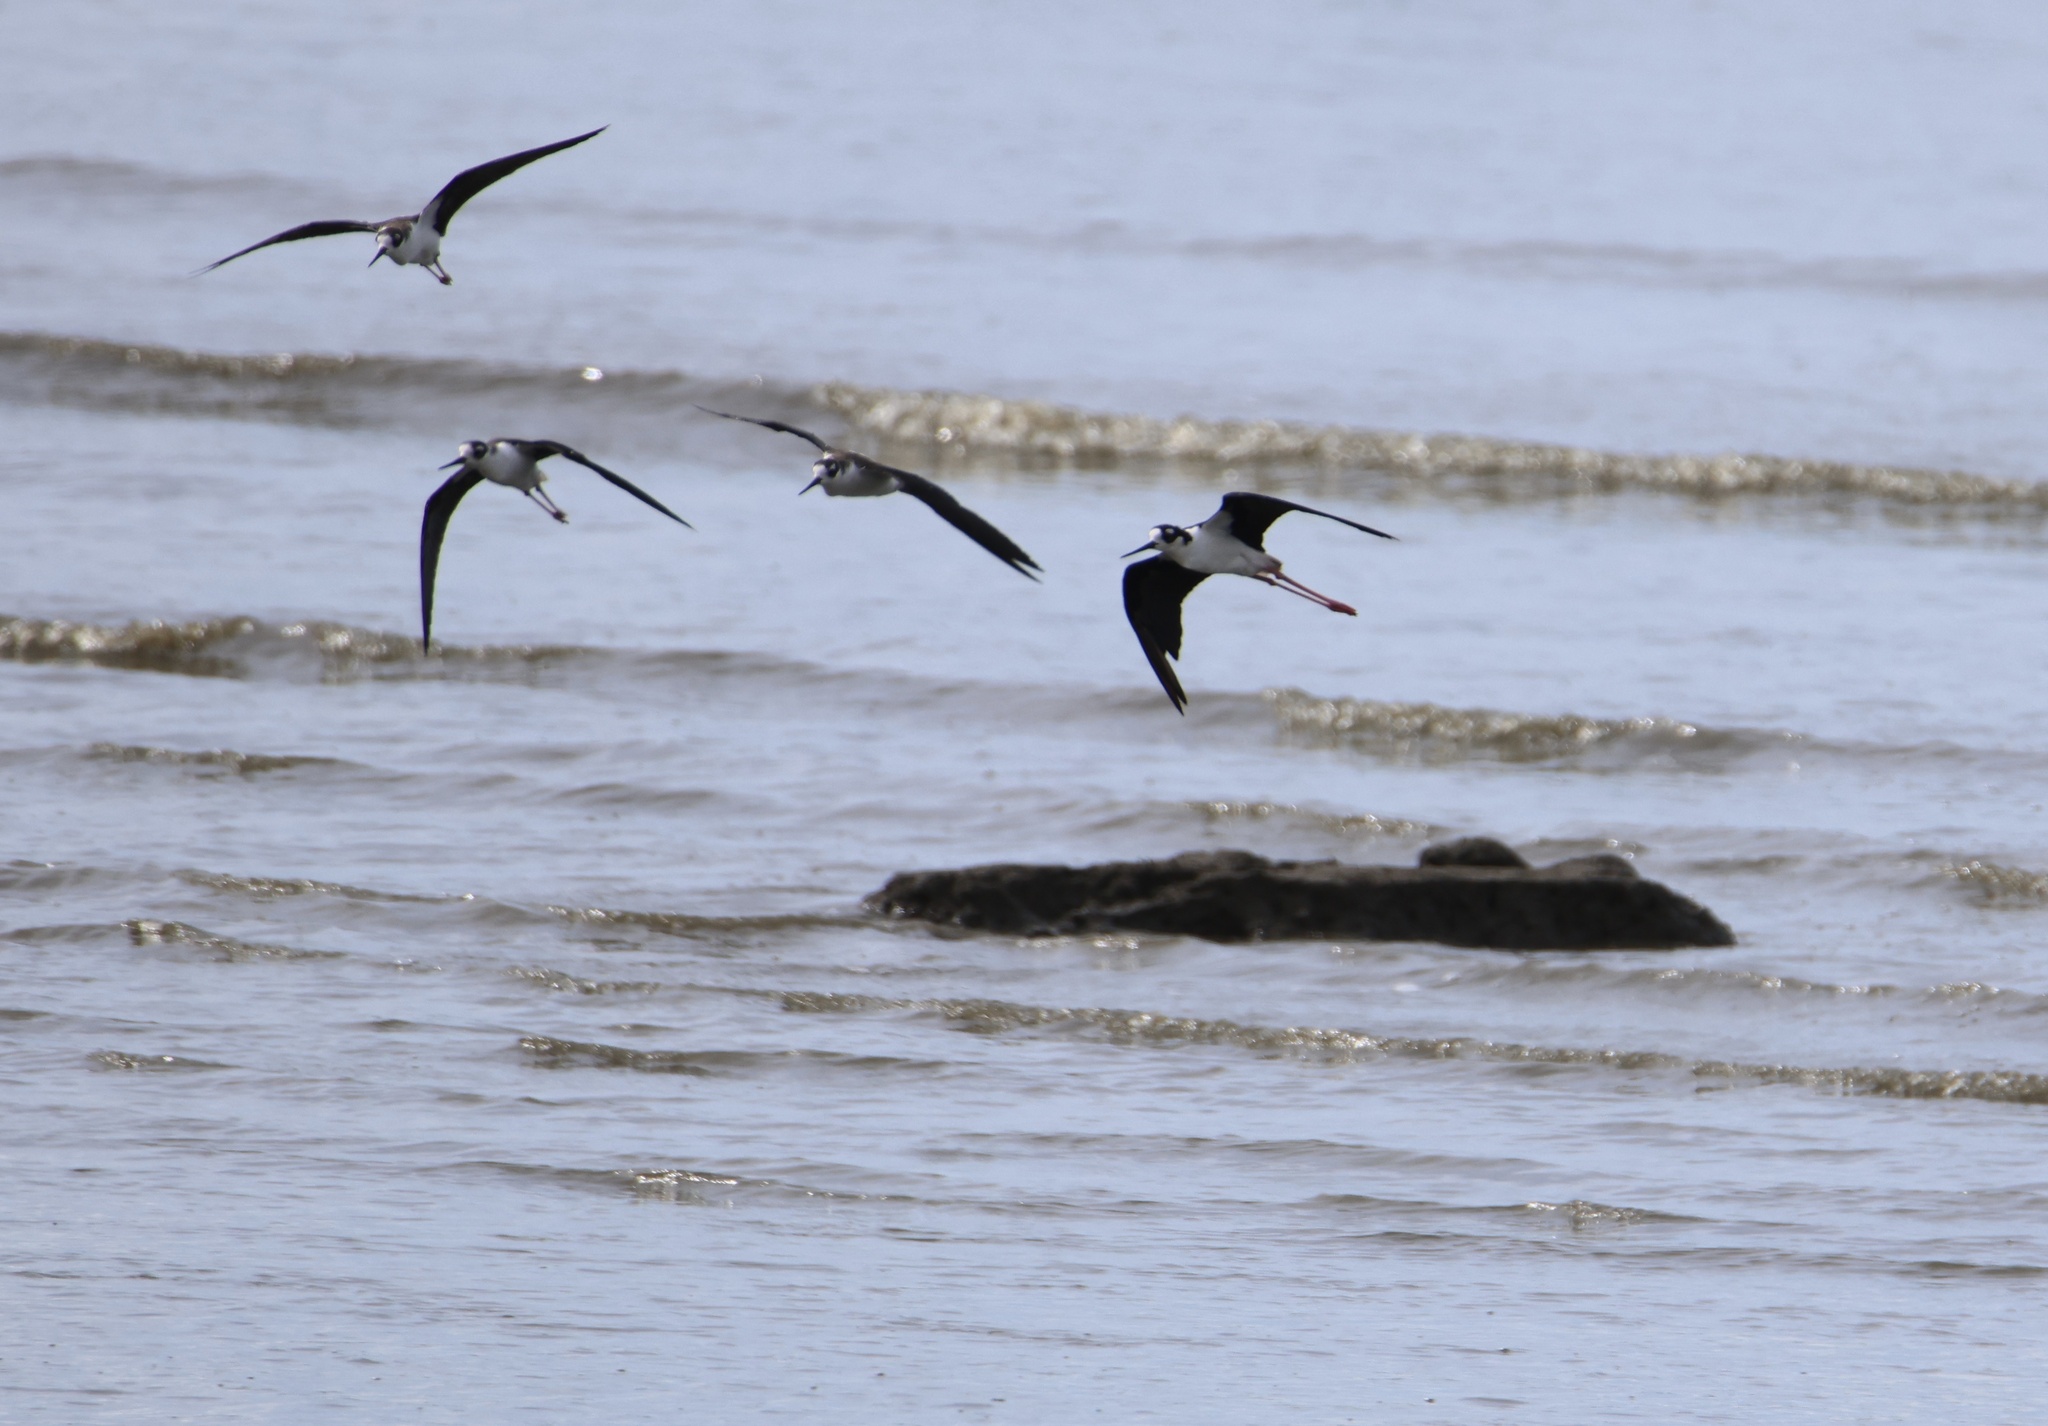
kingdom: Animalia
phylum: Chordata
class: Aves
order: Charadriiformes
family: Recurvirostridae
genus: Himantopus
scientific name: Himantopus mexicanus
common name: Black-necked stilt
